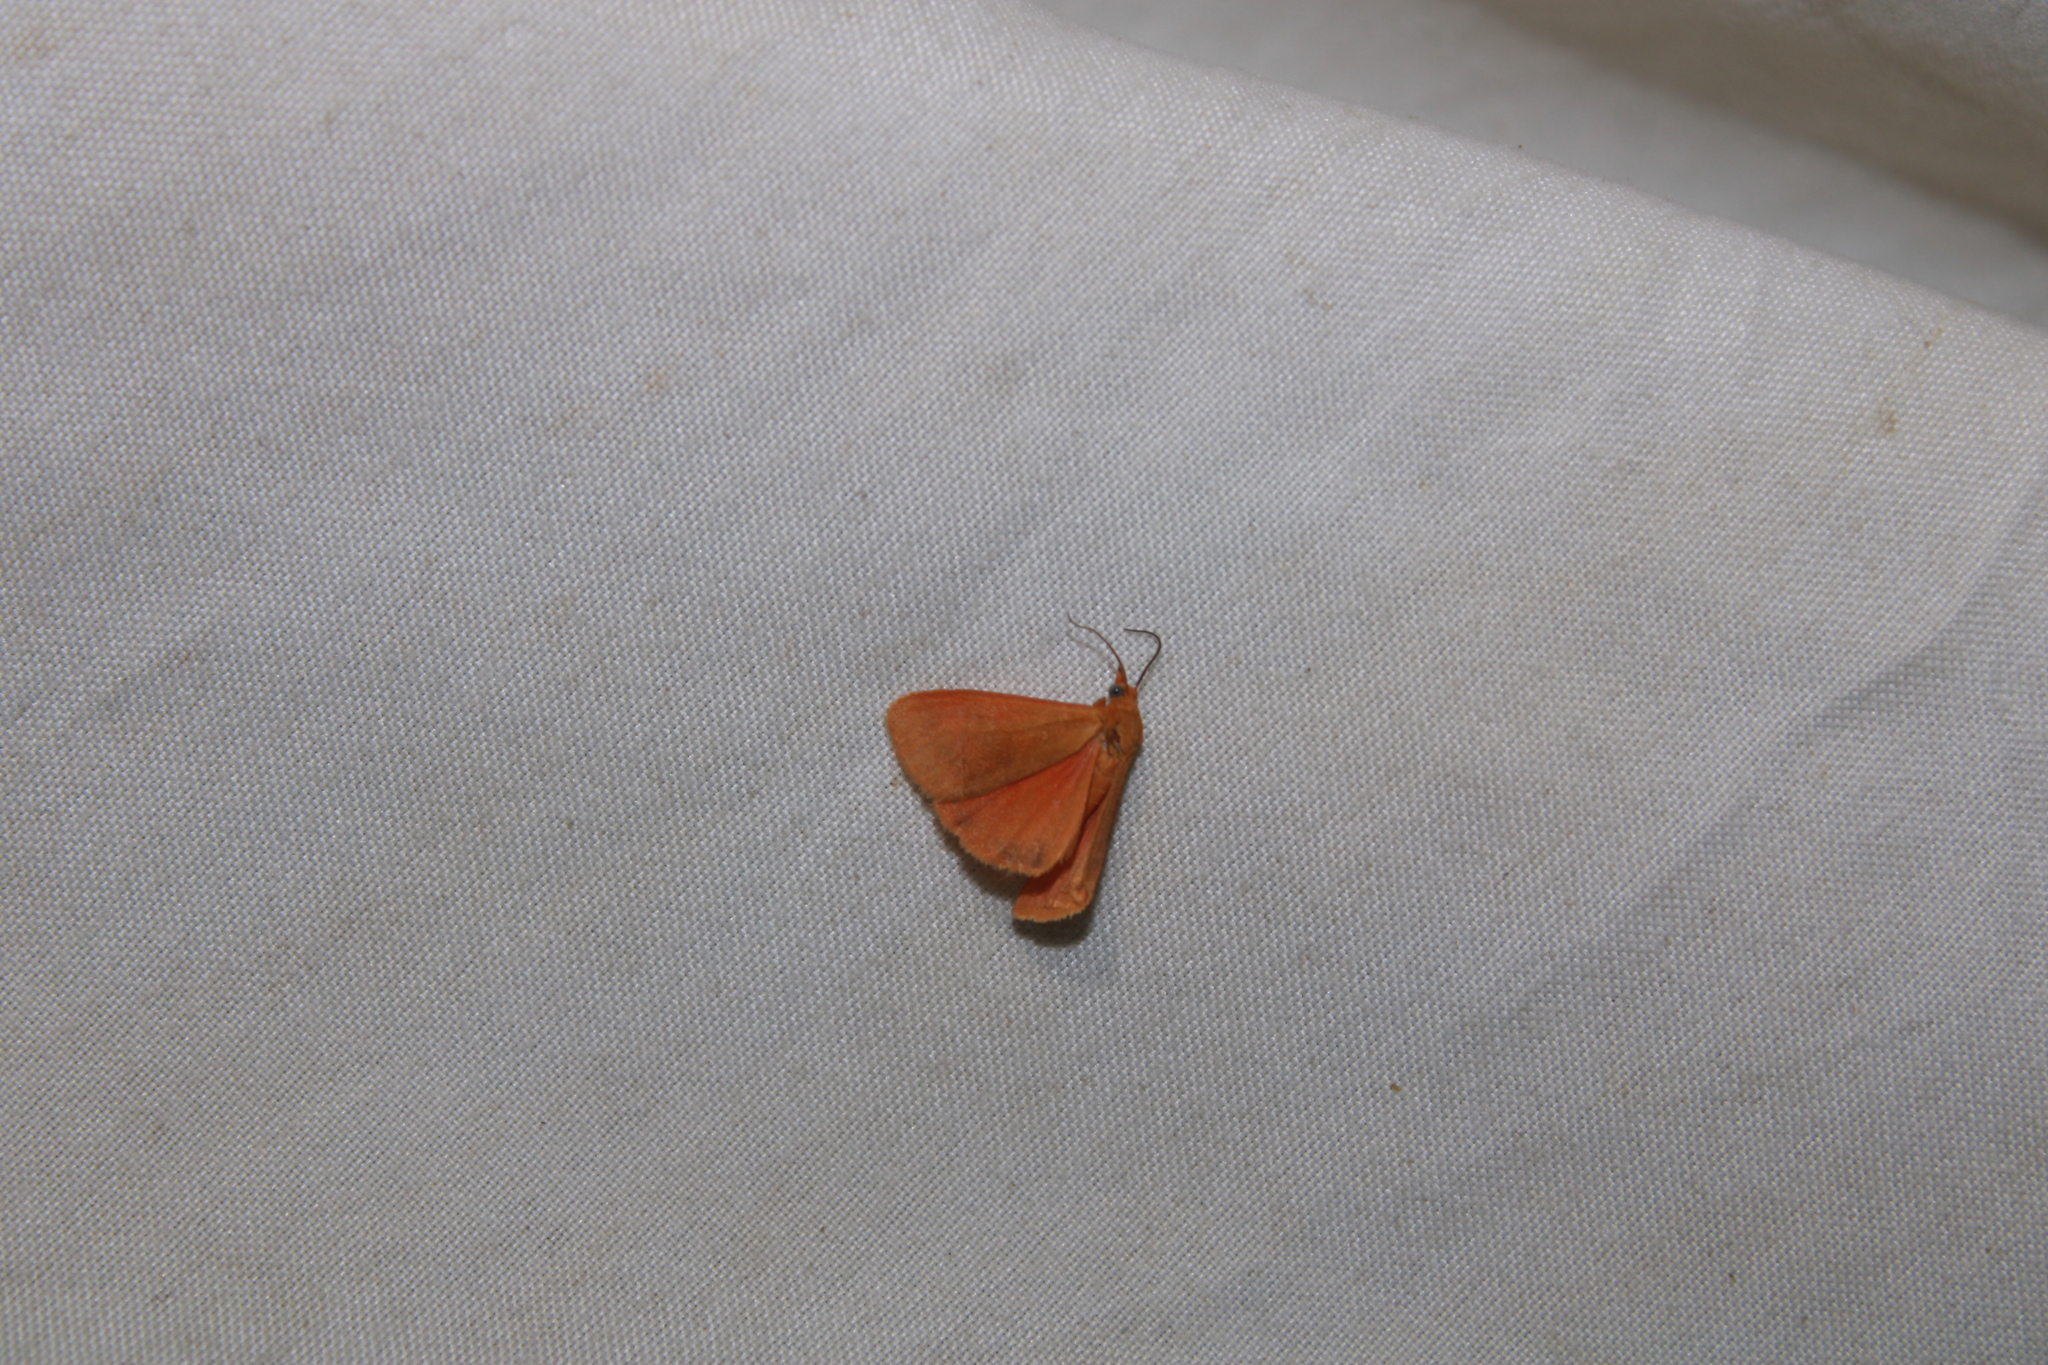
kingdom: Animalia
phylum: Arthropoda
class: Insecta
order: Lepidoptera
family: Erebidae
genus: Virbia
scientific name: Virbia aurantiaca
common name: Orange virbia moth
